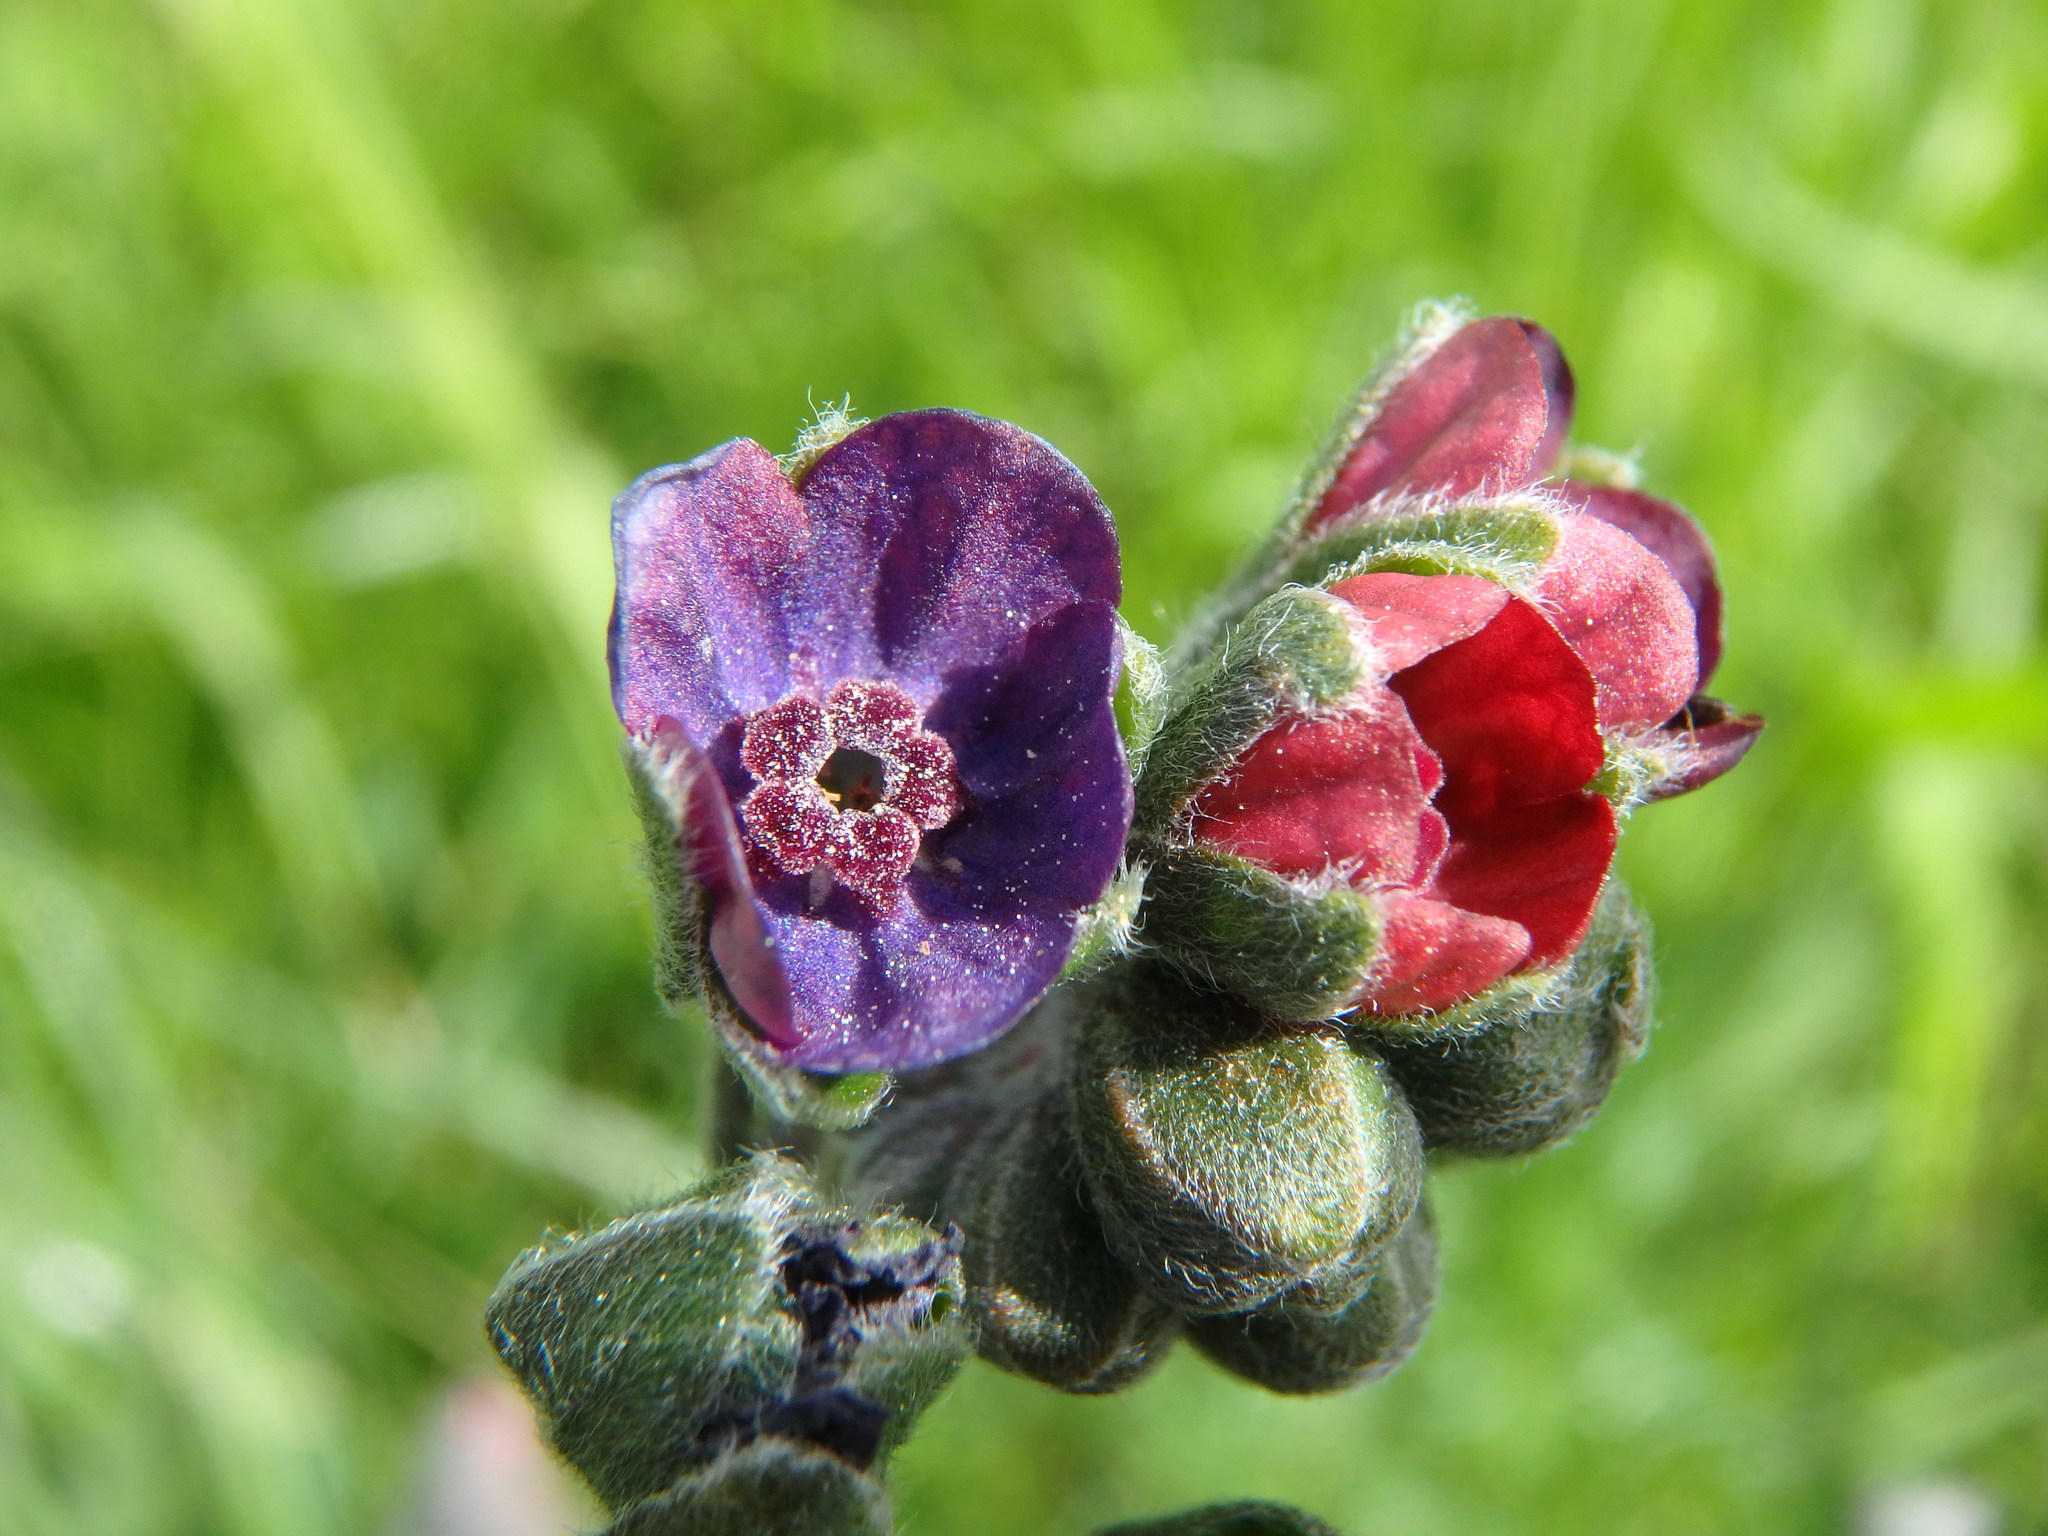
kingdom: Plantae
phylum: Tracheophyta
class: Magnoliopsida
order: Boraginales
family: Boraginaceae
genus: Cynoglossum
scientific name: Cynoglossum officinale
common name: Hound's-tongue
